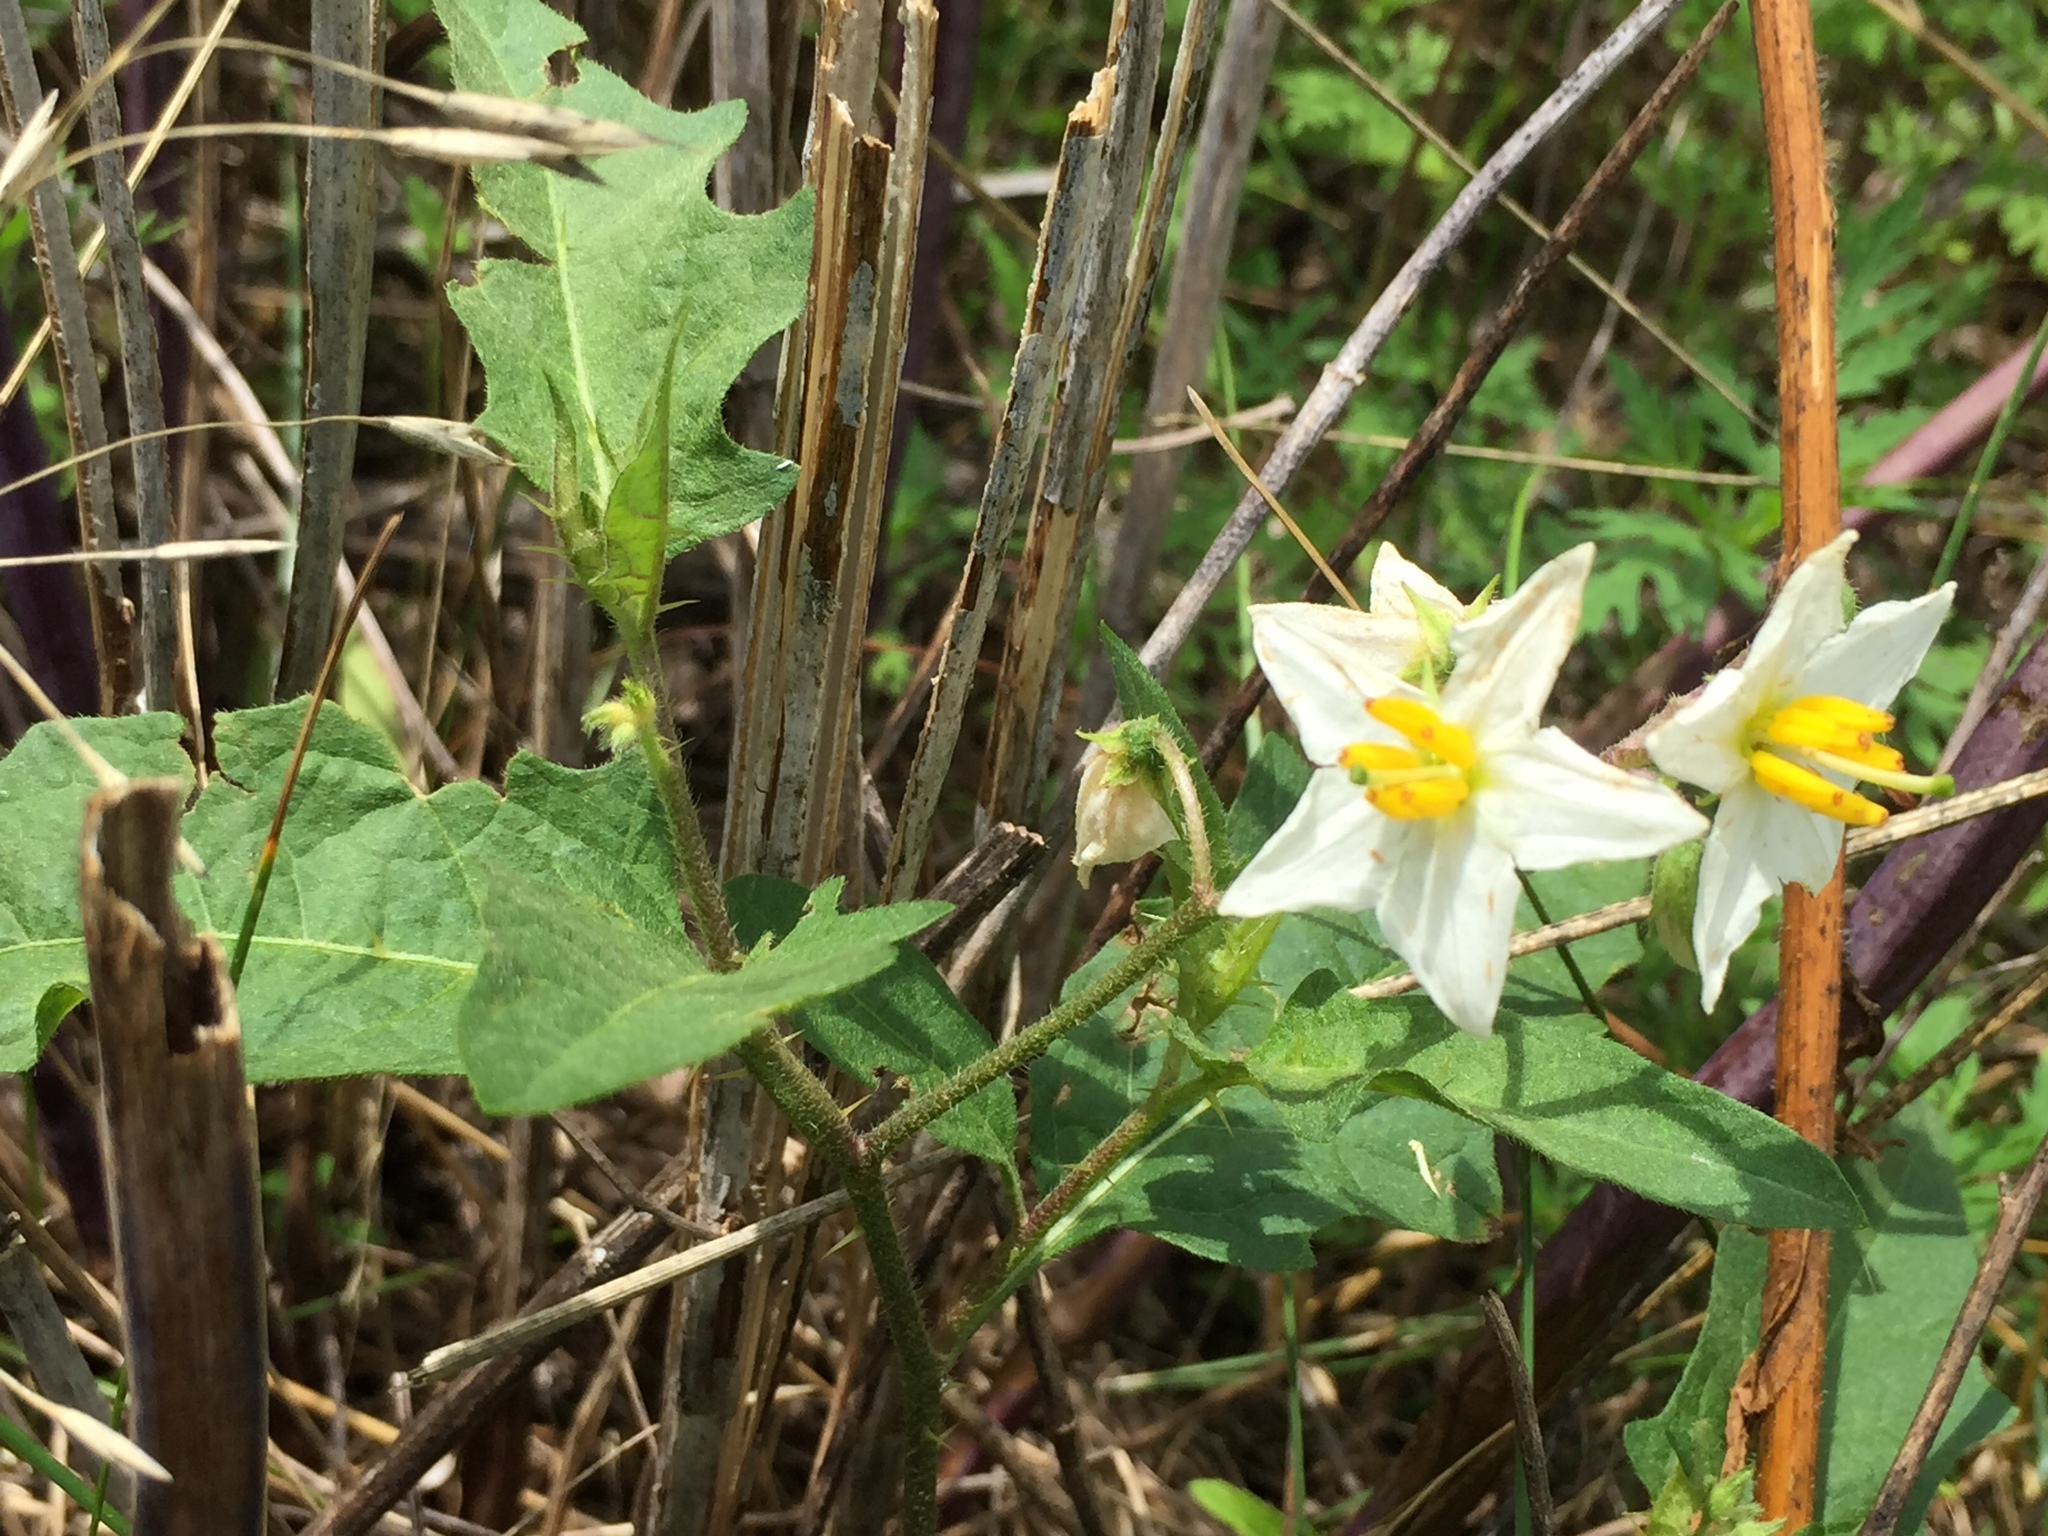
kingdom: Plantae
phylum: Tracheophyta
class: Magnoliopsida
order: Solanales
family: Solanaceae
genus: Solanum
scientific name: Solanum carolinense
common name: Horse-nettle
